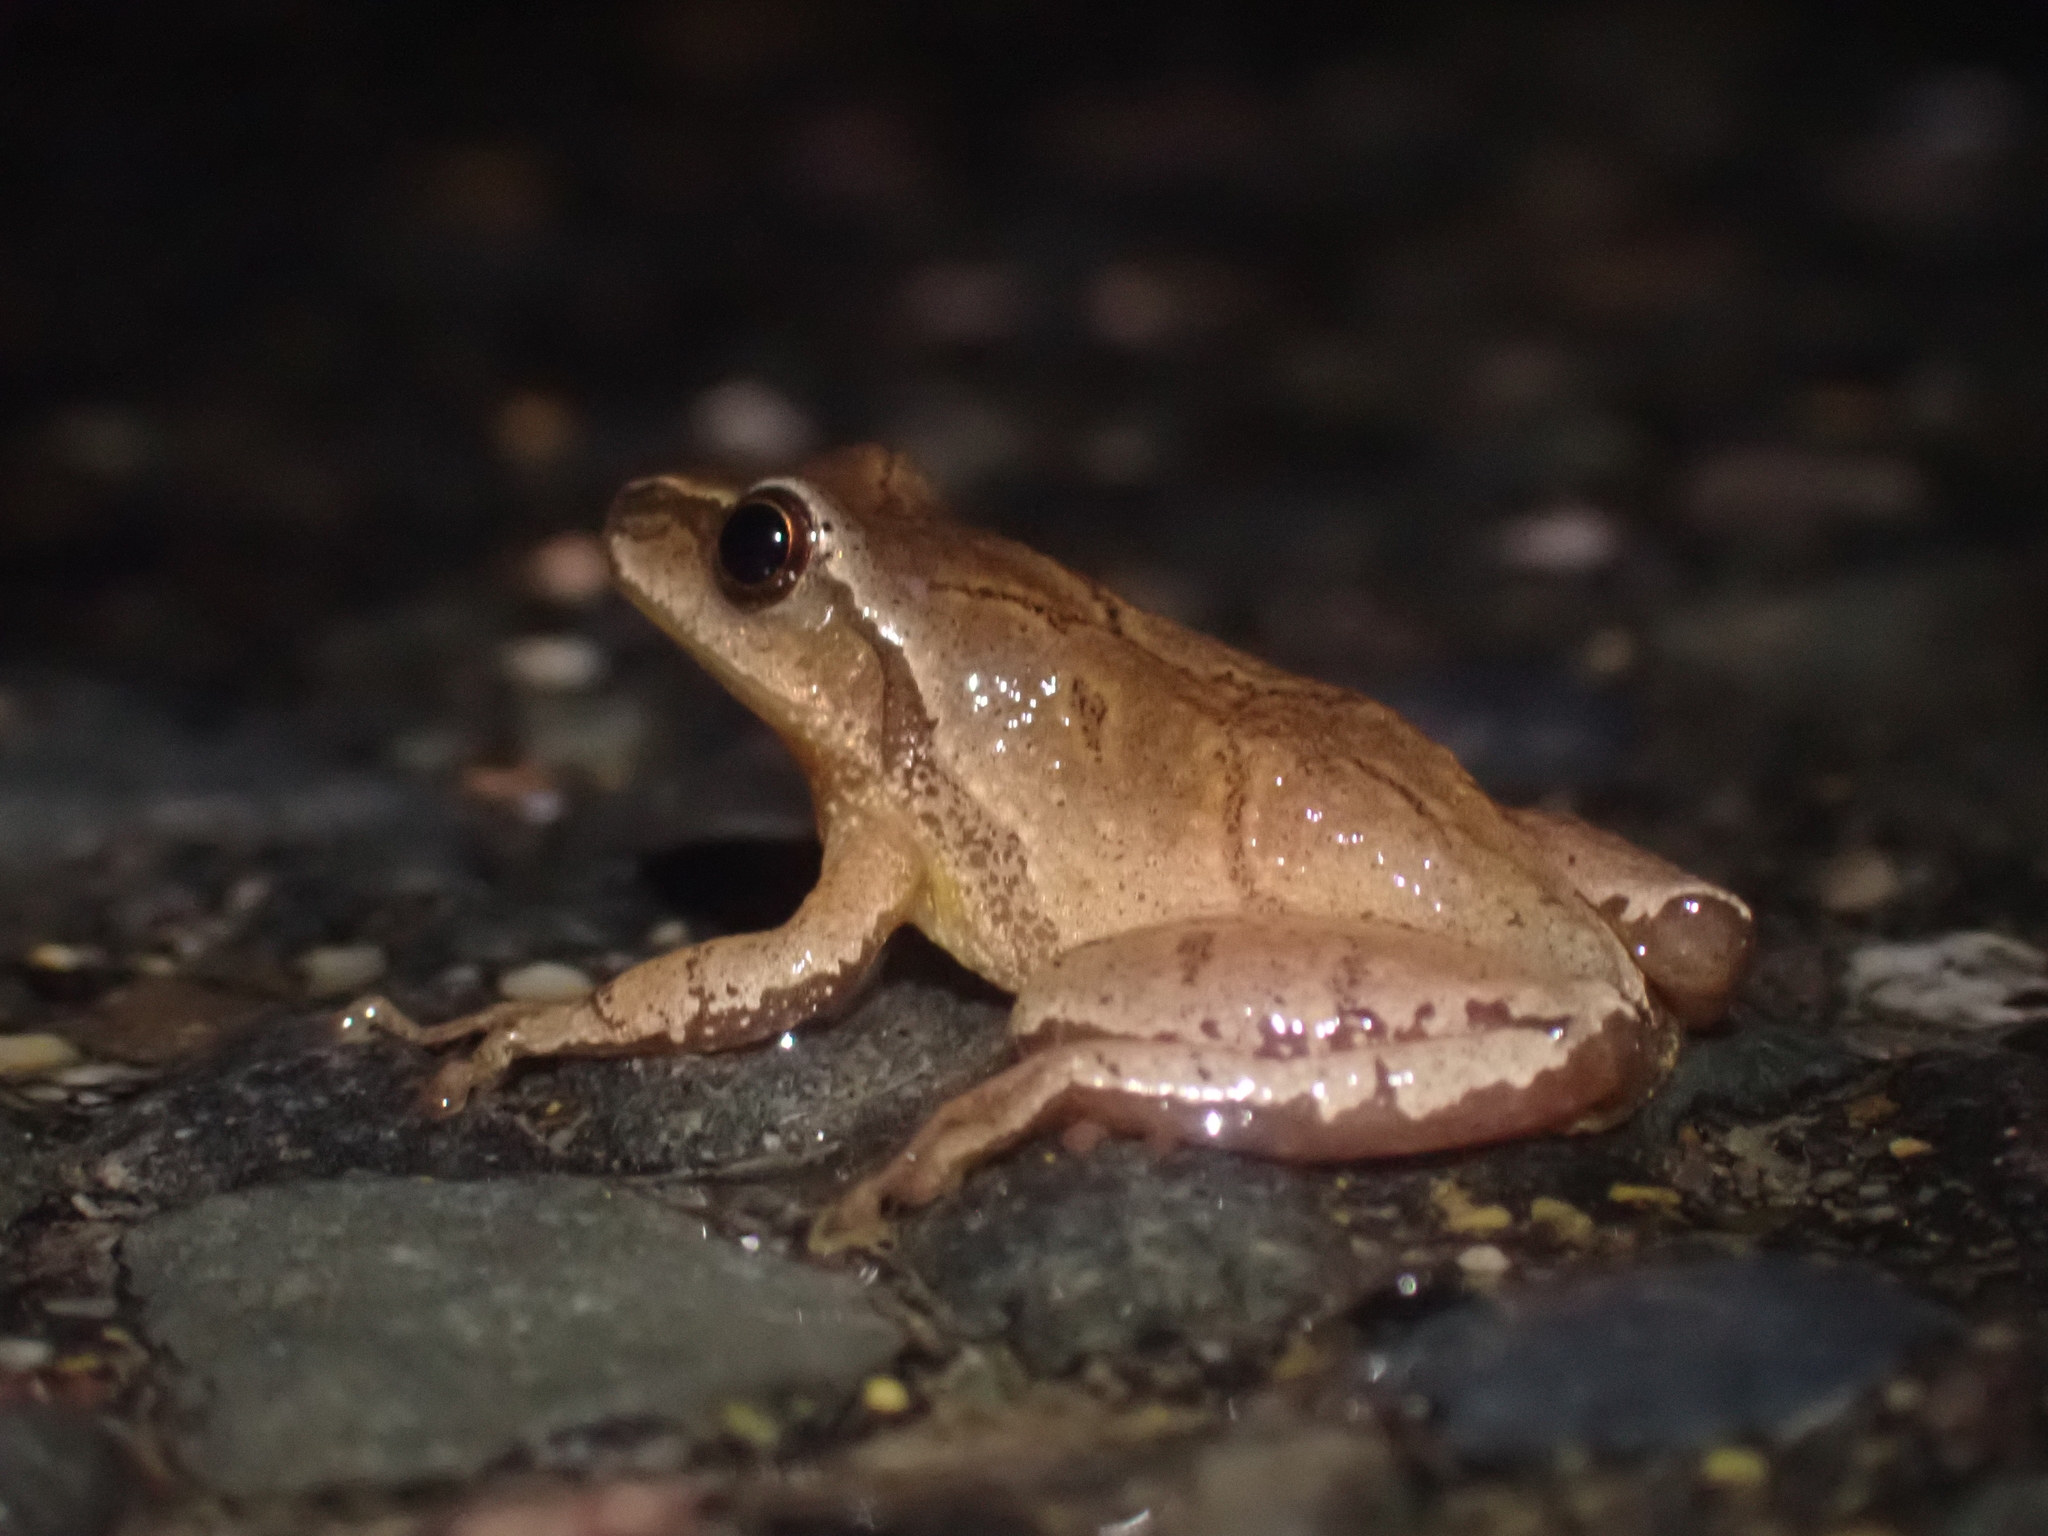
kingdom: Animalia
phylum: Chordata
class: Amphibia
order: Anura
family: Hylidae
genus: Pseudacris
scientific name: Pseudacris crucifer
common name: Spring peeper
